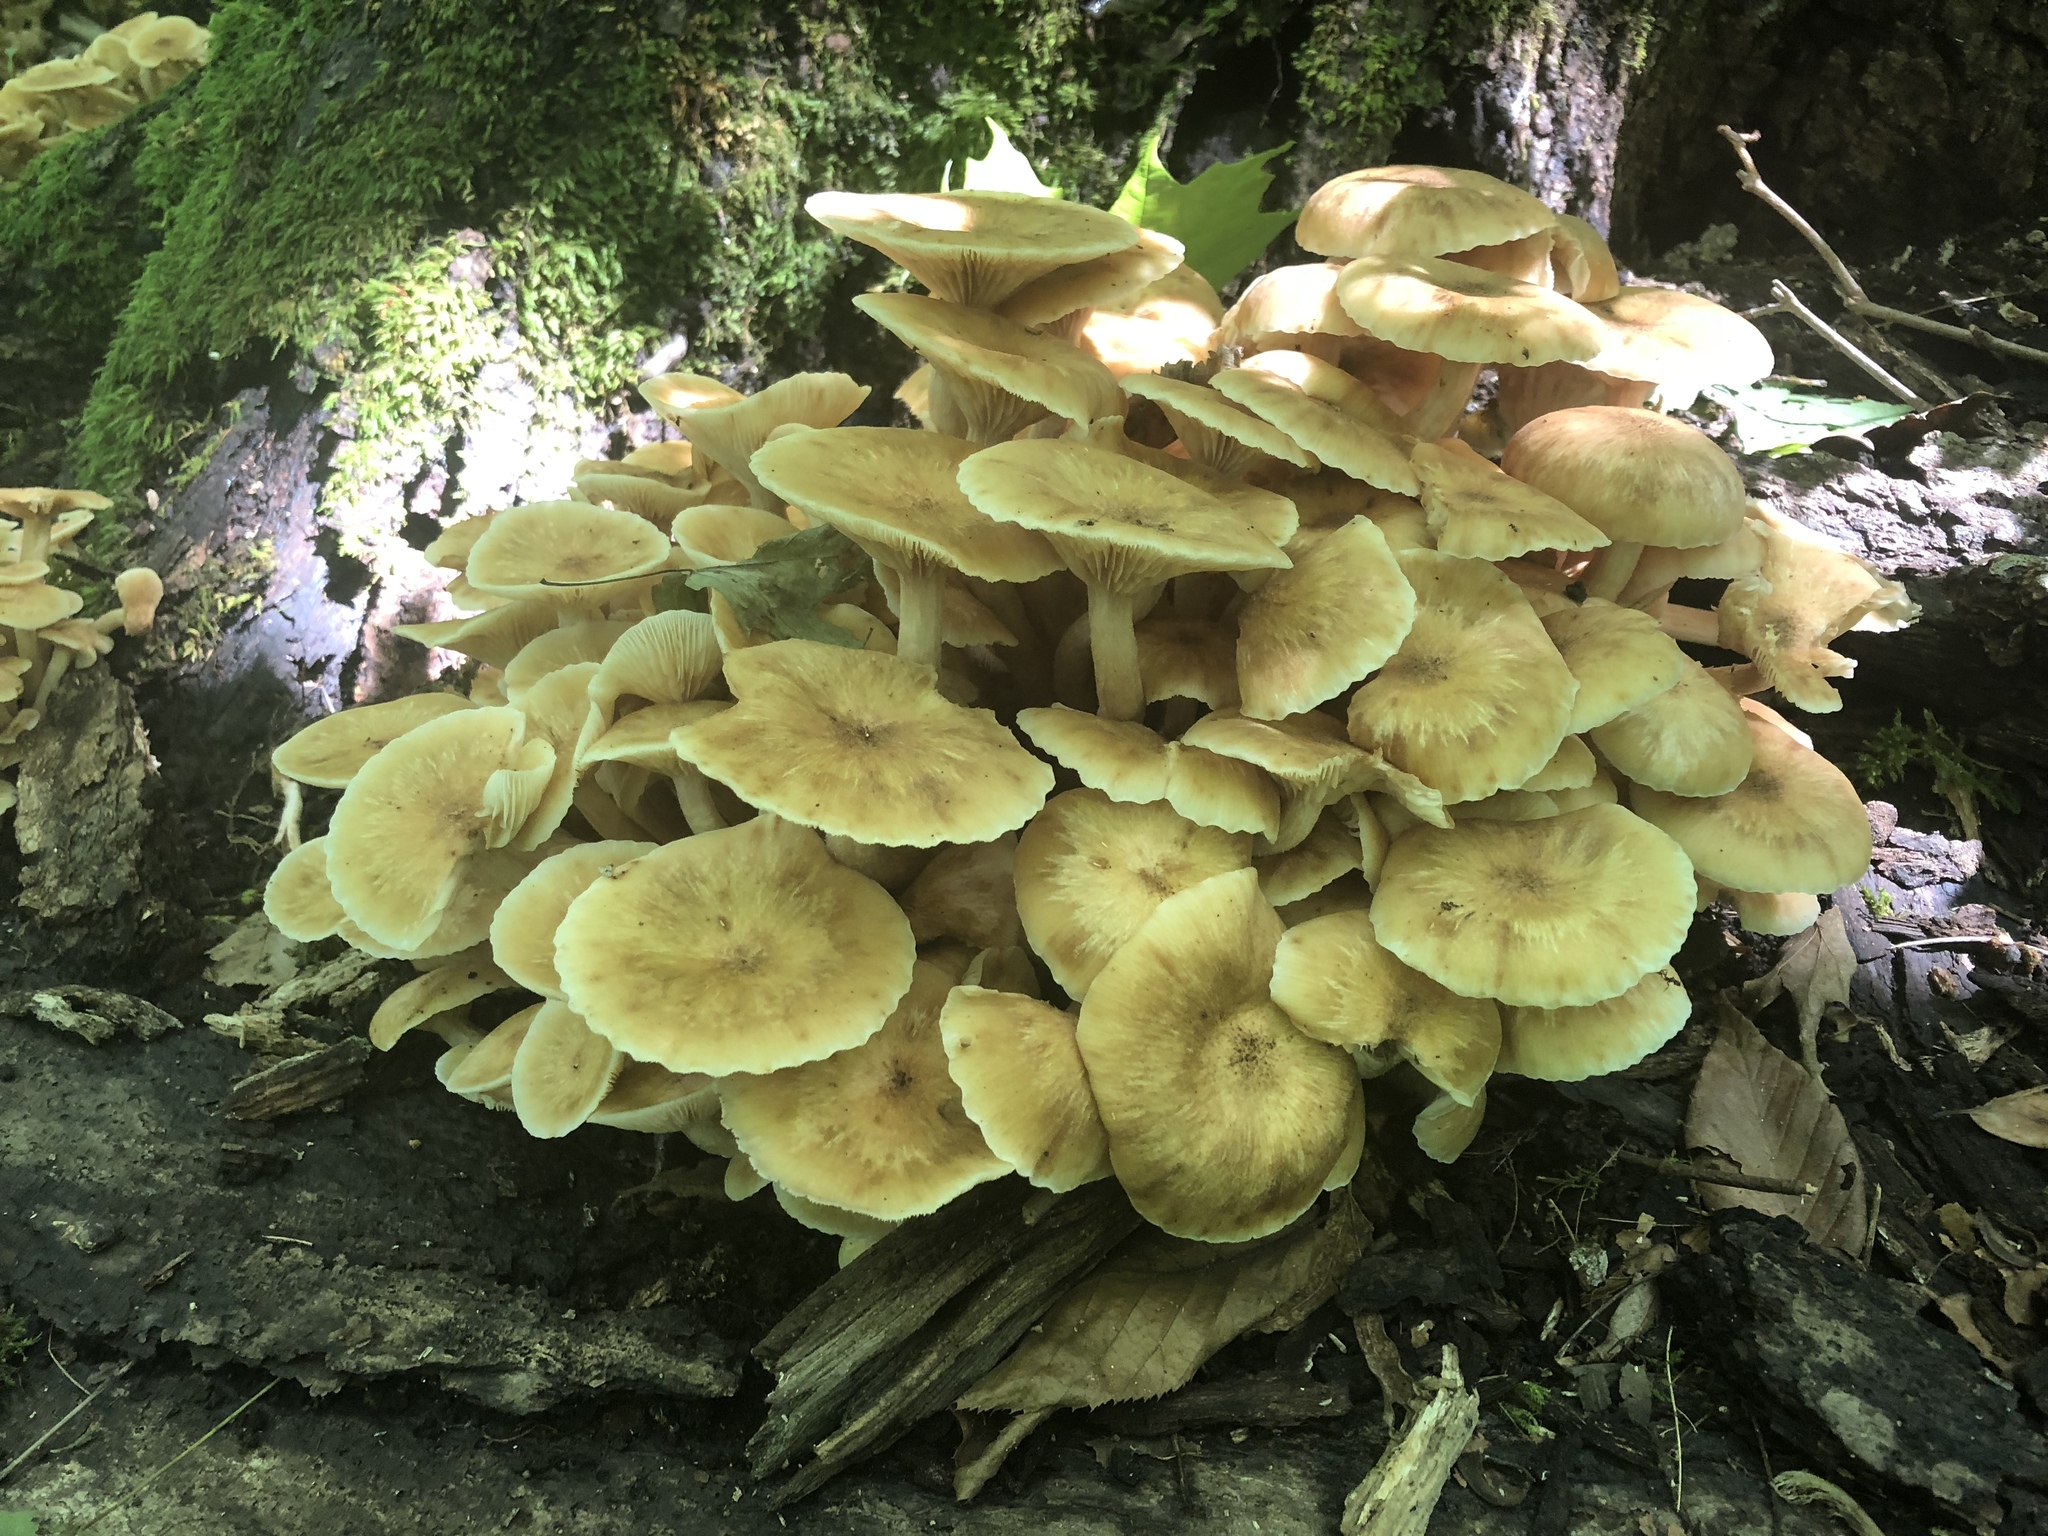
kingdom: Fungi
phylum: Basidiomycota
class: Agaricomycetes
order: Agaricales
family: Physalacriaceae
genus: Desarmillaria
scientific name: Desarmillaria caespitosa
